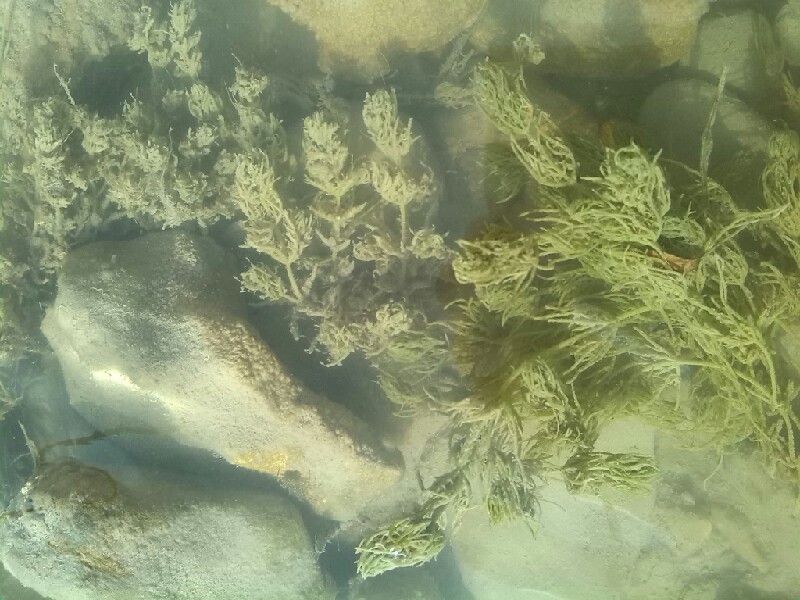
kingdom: Plantae
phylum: Charophyta
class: Charophyceae
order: Charales
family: Characeae
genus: Chara
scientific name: Chara vulgaris
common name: Common stonewort
